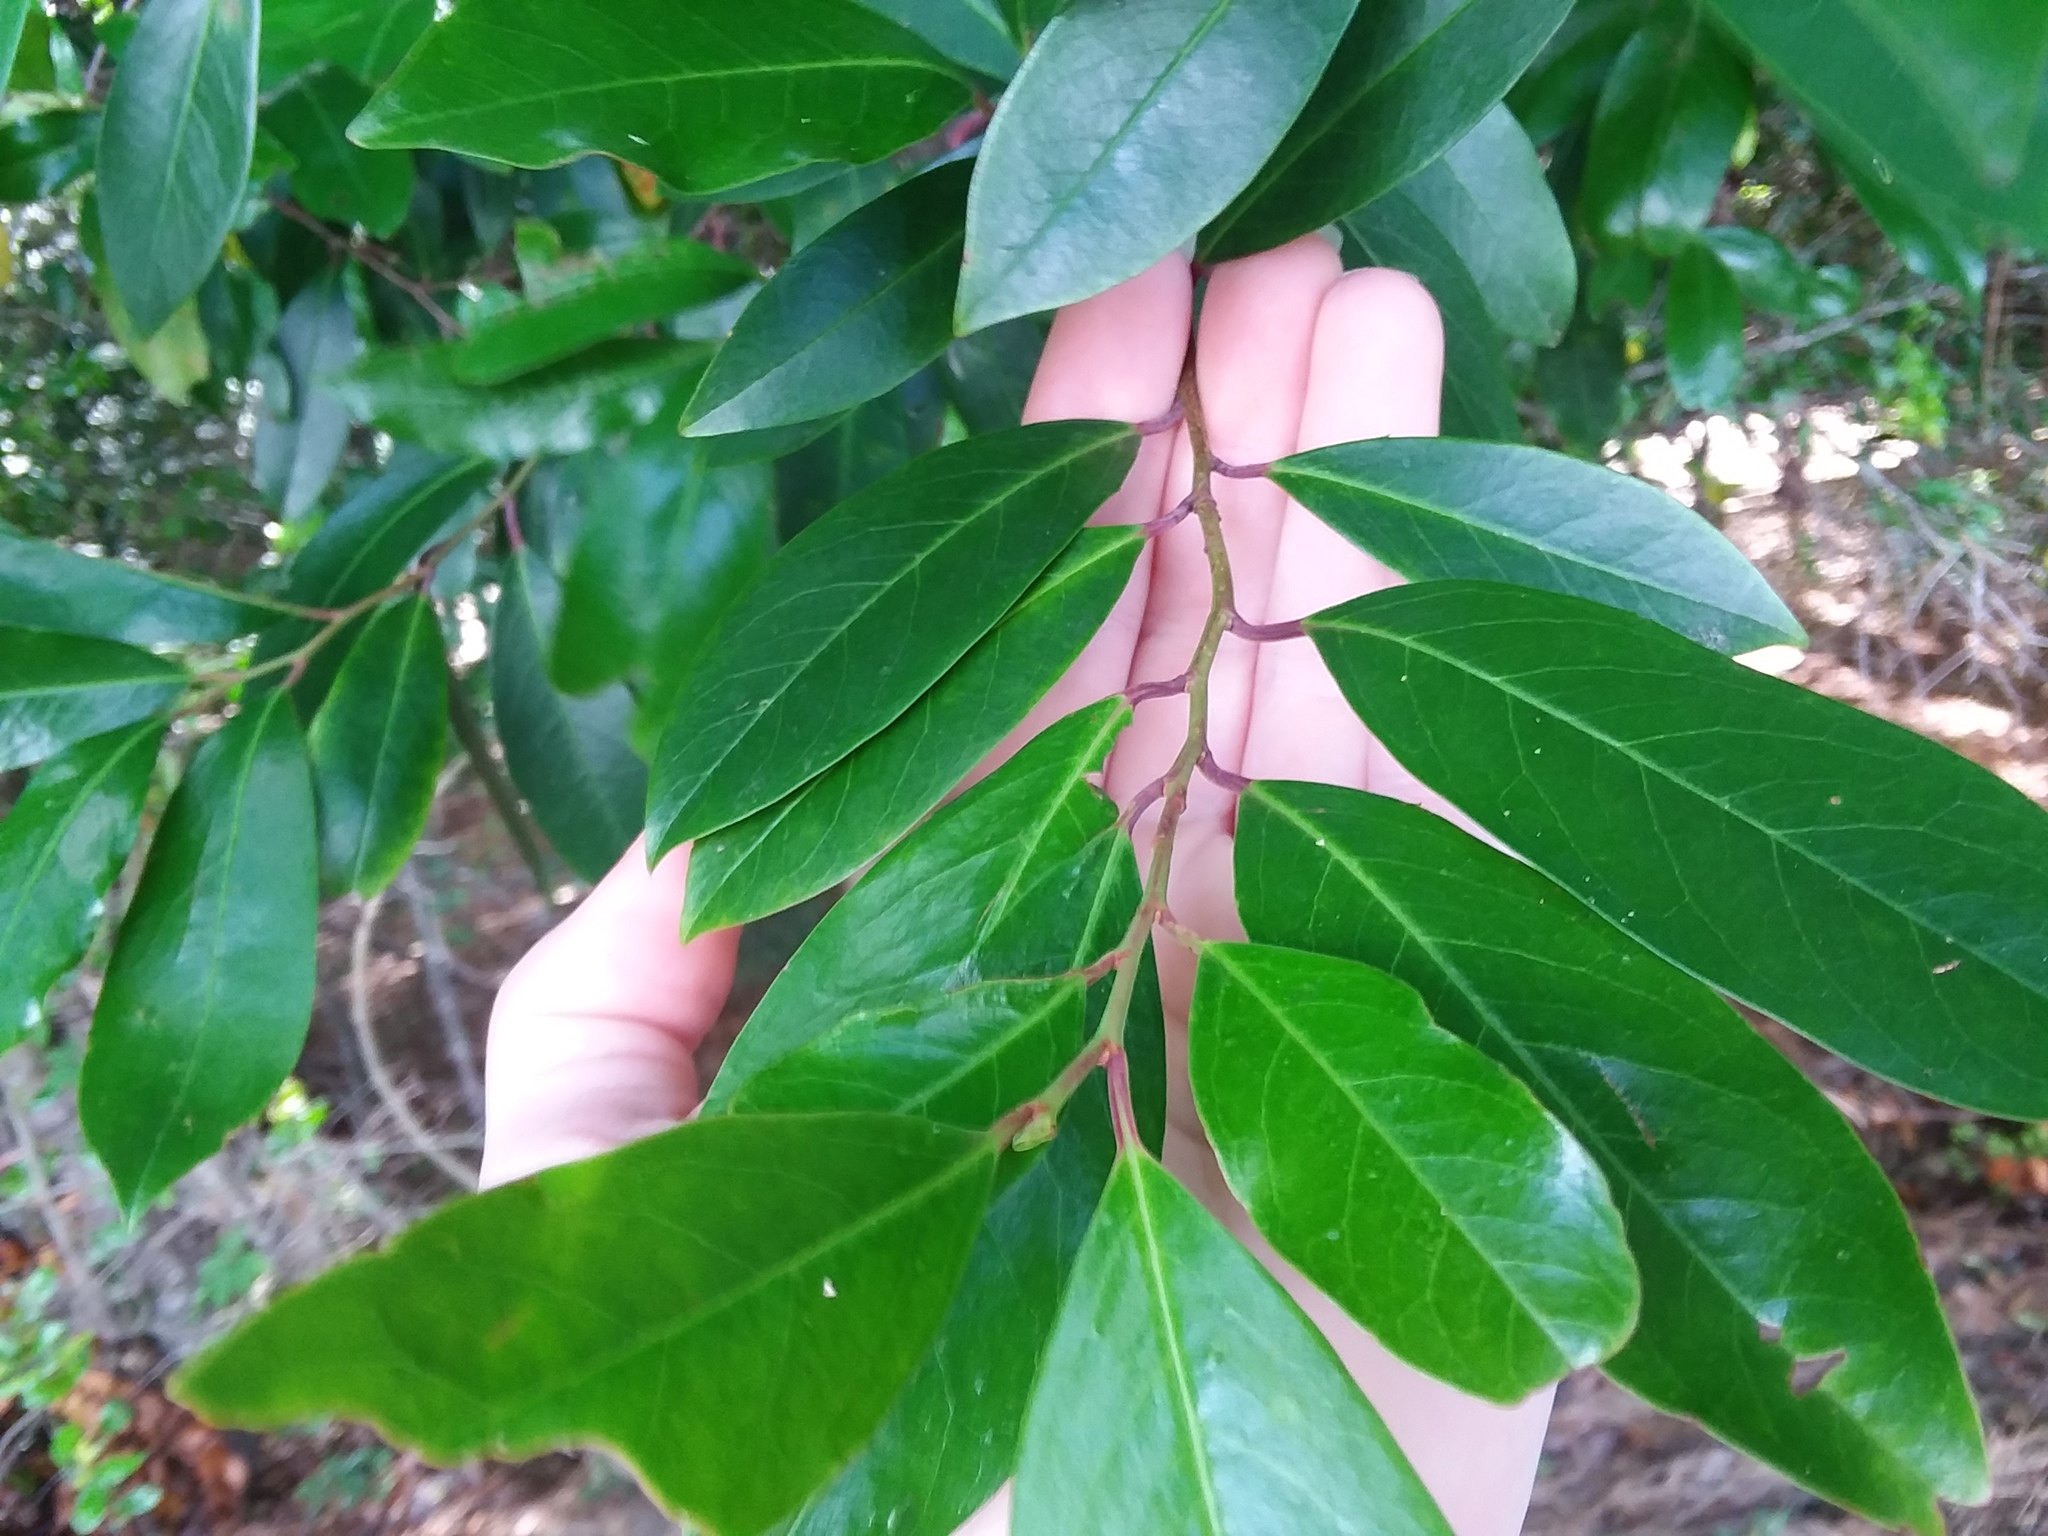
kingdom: Plantae
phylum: Tracheophyta
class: Magnoliopsida
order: Rosales
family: Rosaceae
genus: Prunus
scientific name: Prunus caroliniana
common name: Carolina laurel cherry
